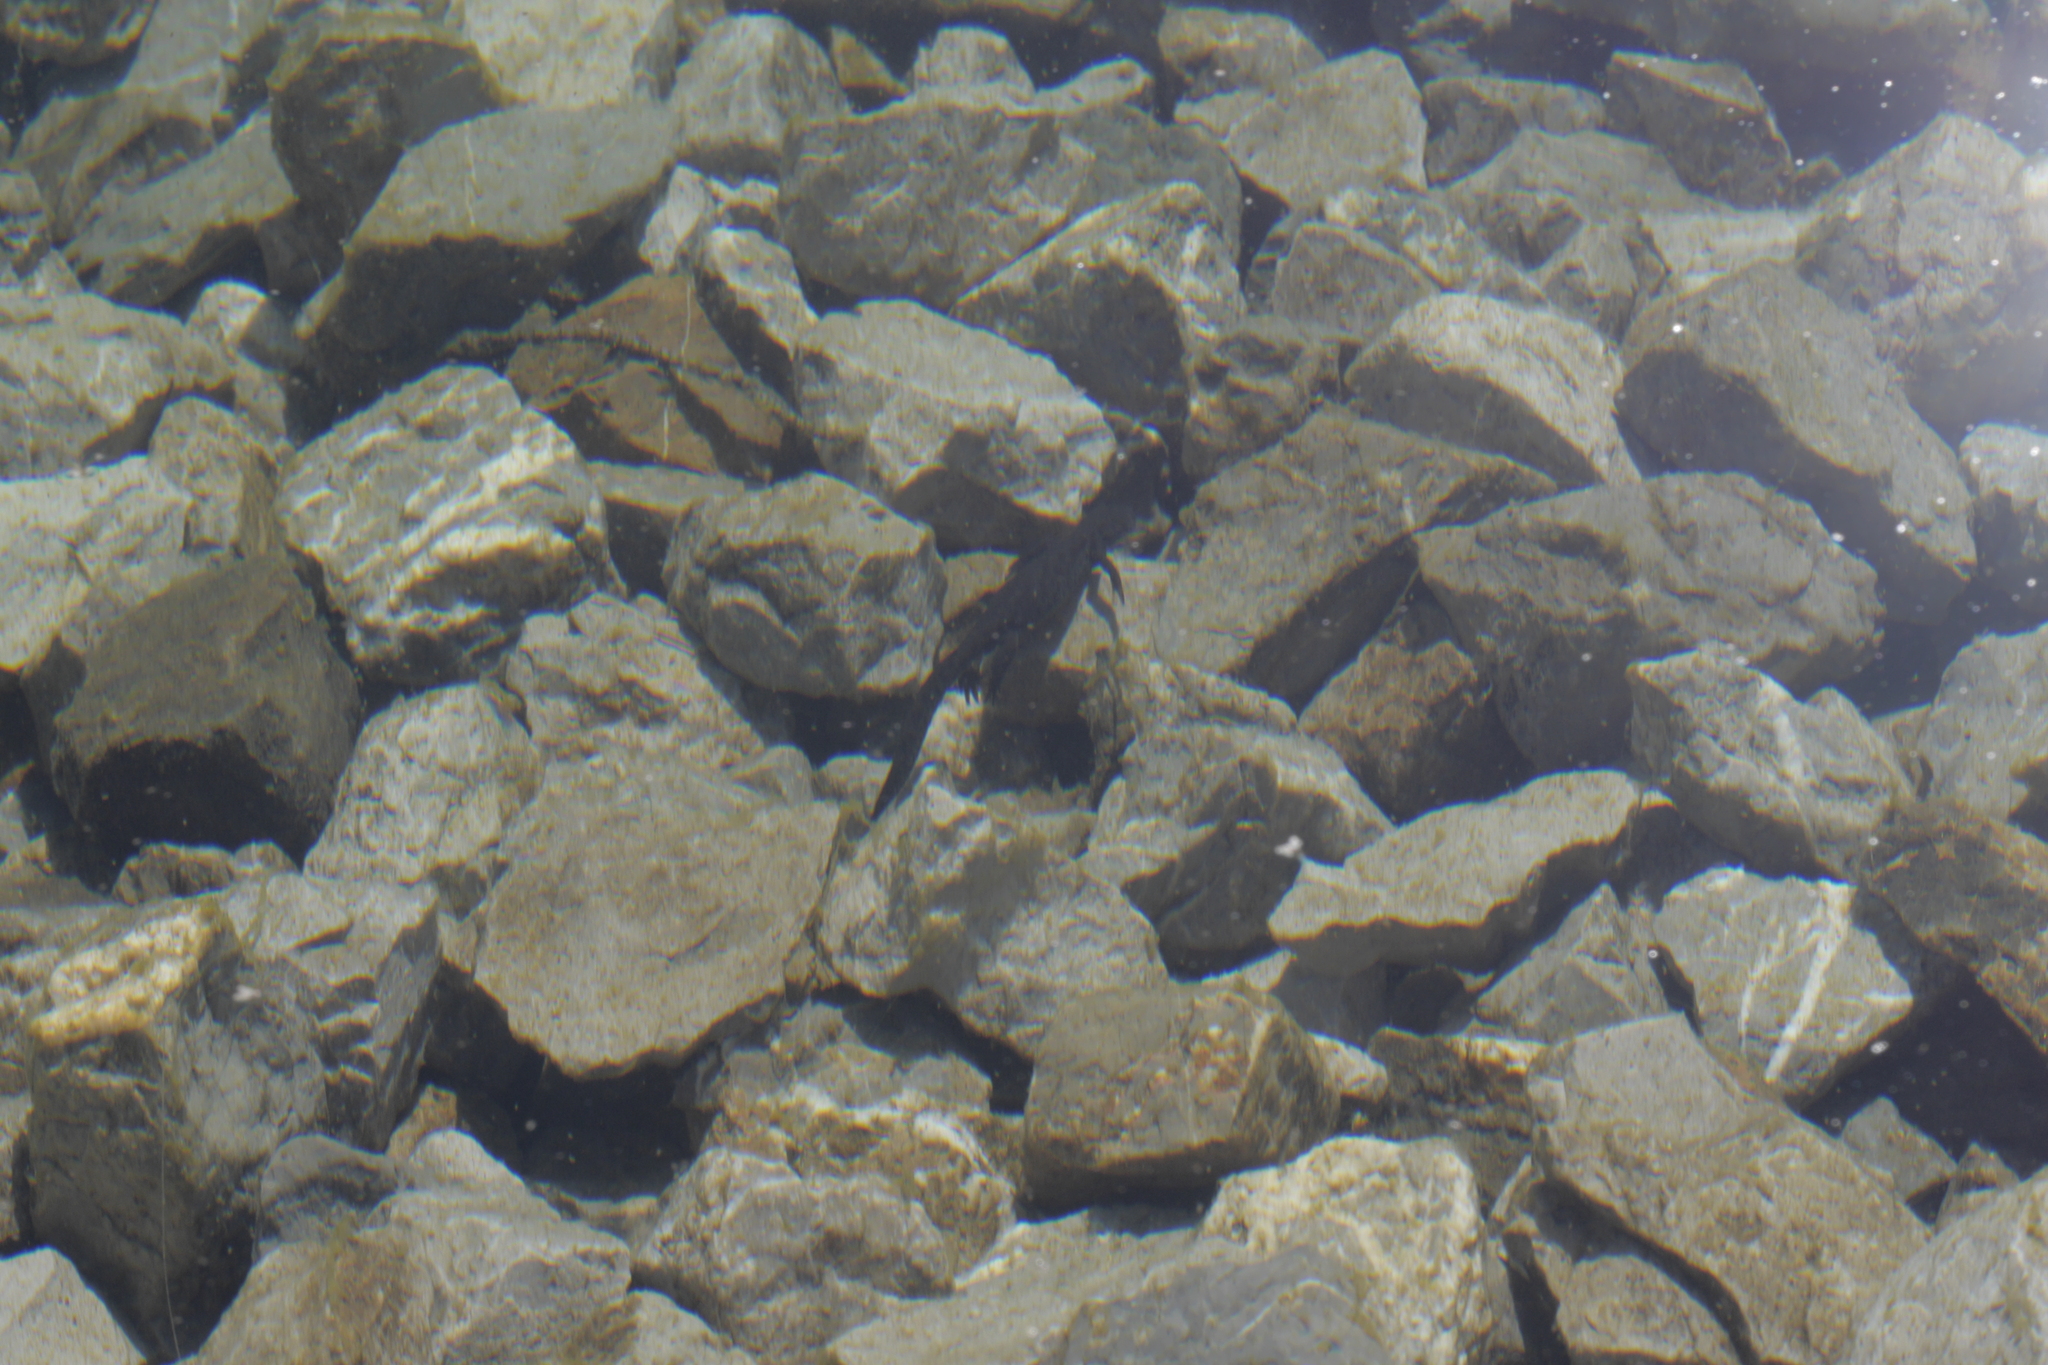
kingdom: Animalia
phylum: Chordata
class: Amphibia
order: Caudata
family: Salamandridae
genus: Ichthyosaura
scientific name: Ichthyosaura alpestris
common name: Alpine newt
